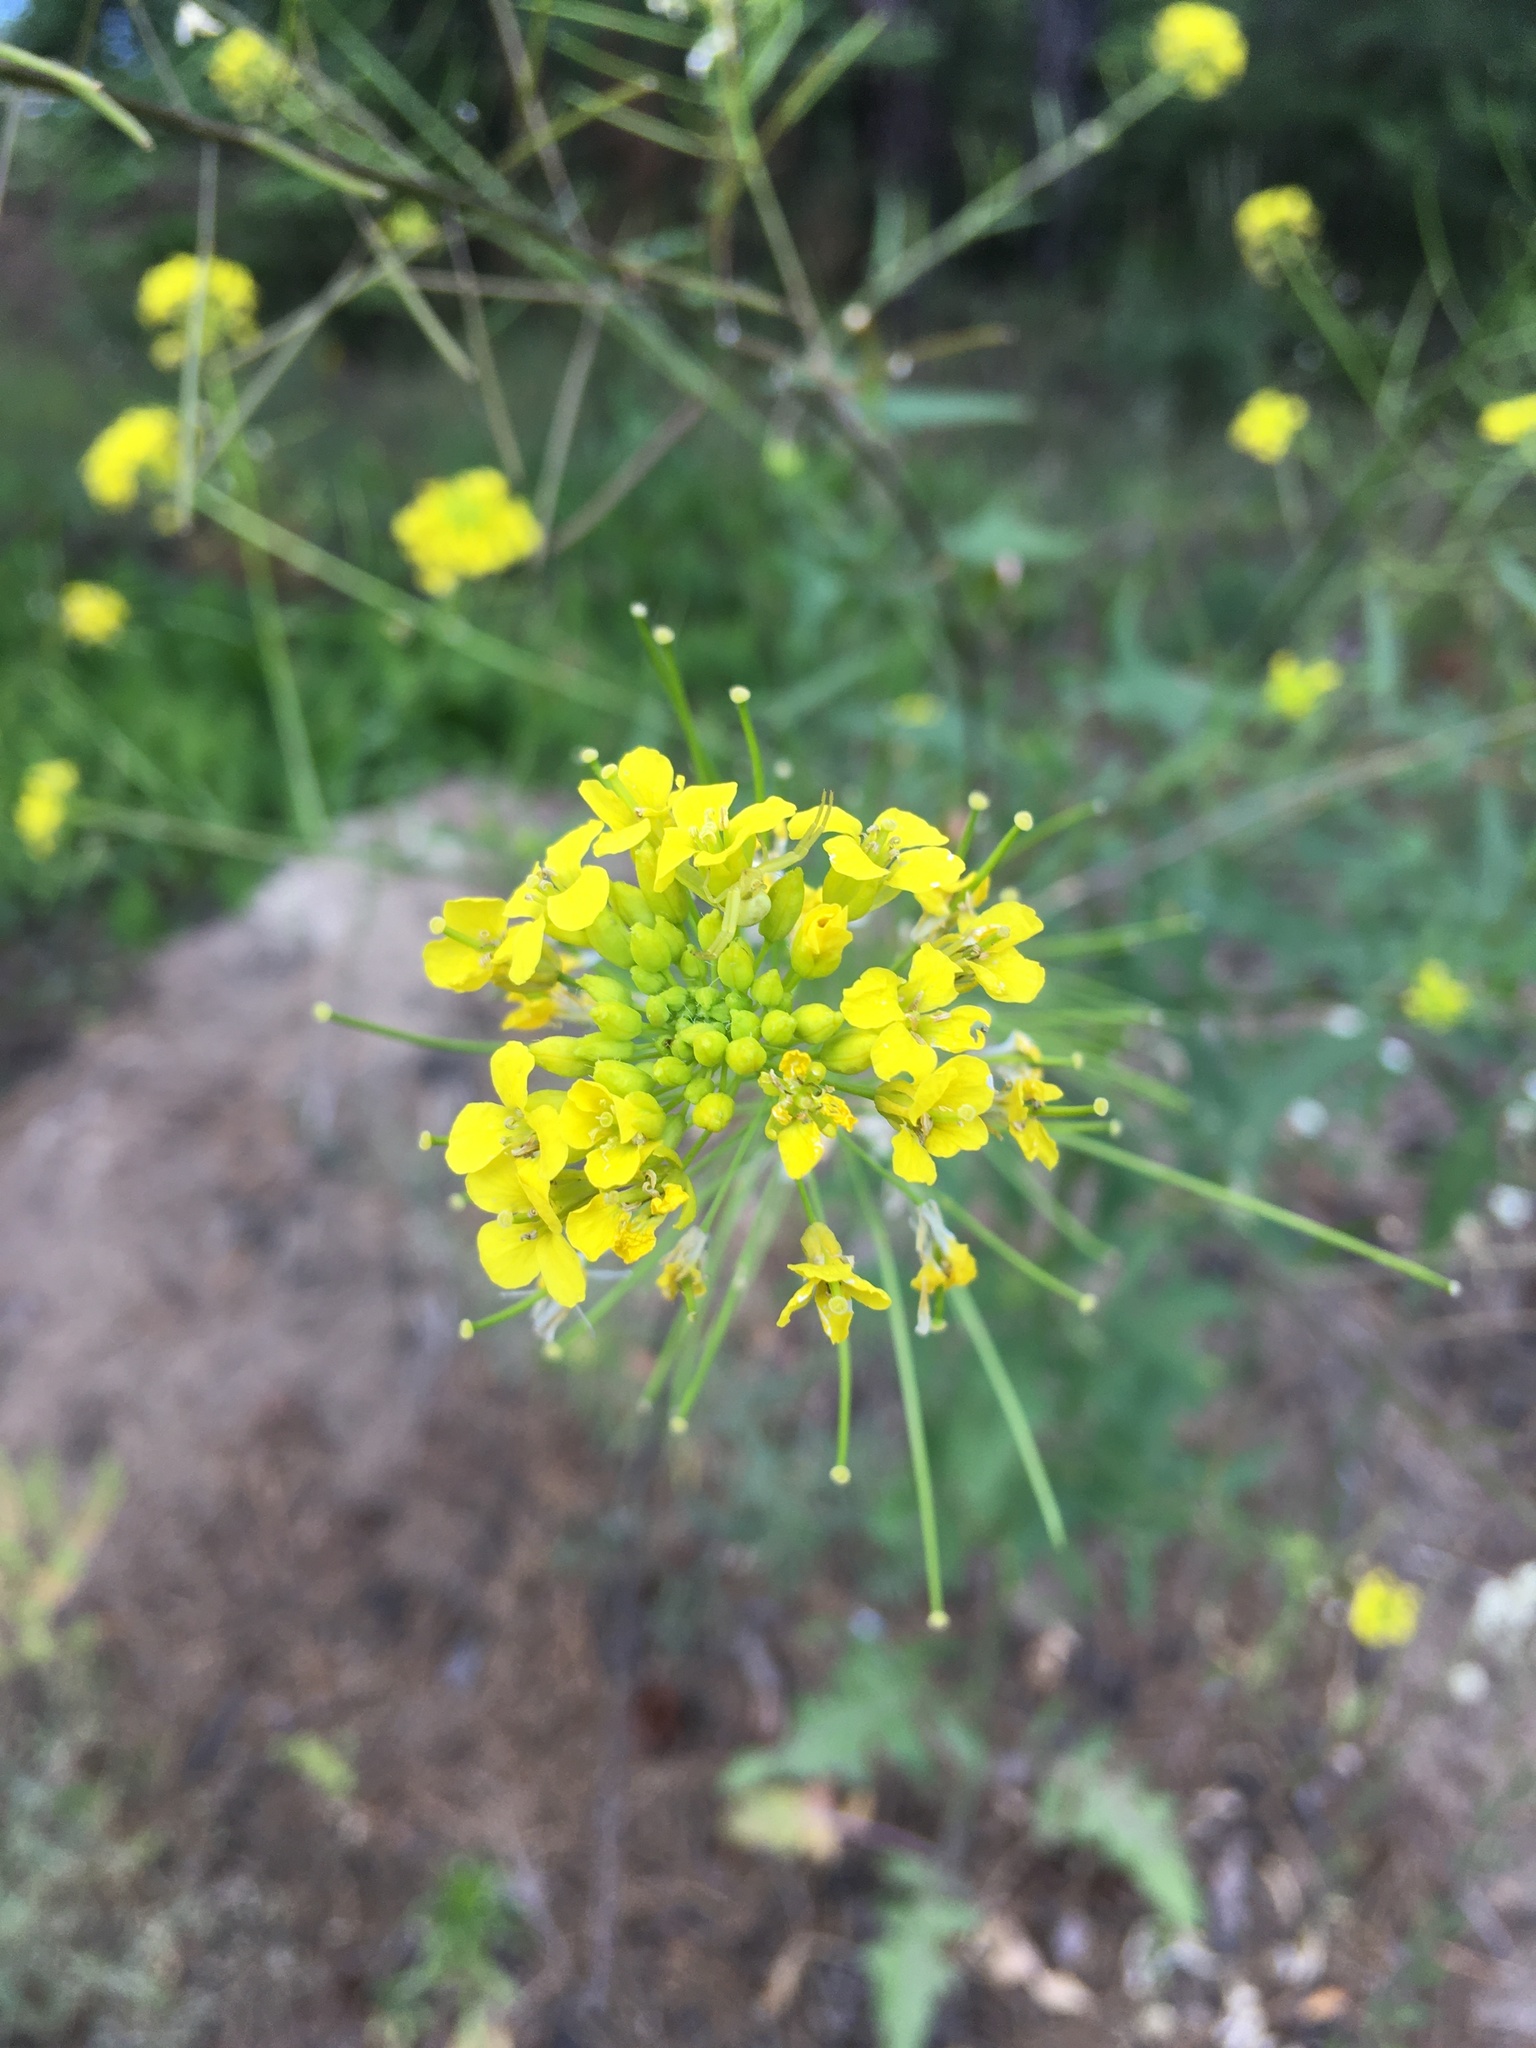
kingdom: Plantae
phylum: Tracheophyta
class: Magnoliopsida
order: Brassicales
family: Brassicaceae
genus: Sisymbrium
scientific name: Sisymbrium loeselii
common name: False london-rocket
